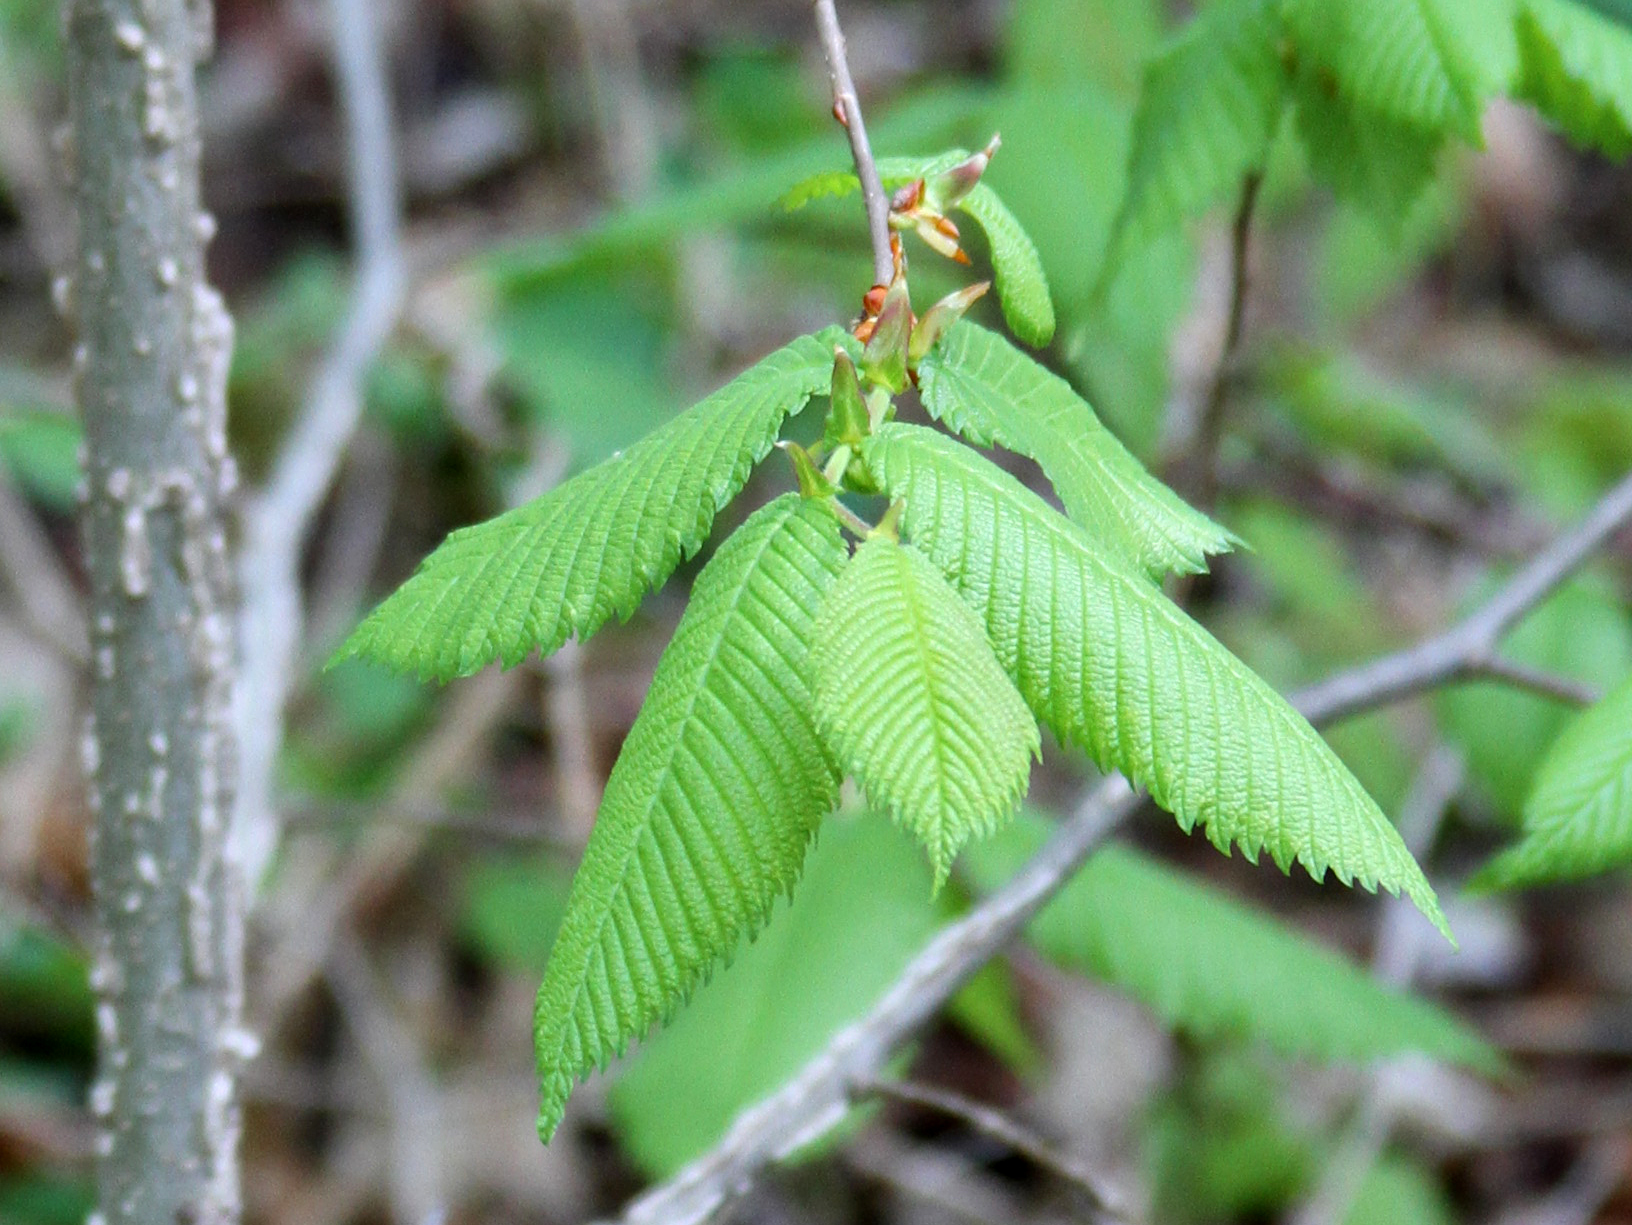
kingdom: Plantae
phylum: Tracheophyta
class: Magnoliopsida
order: Rosales
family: Ulmaceae
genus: Ulmus
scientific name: Ulmus thomasii
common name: Rock elm
